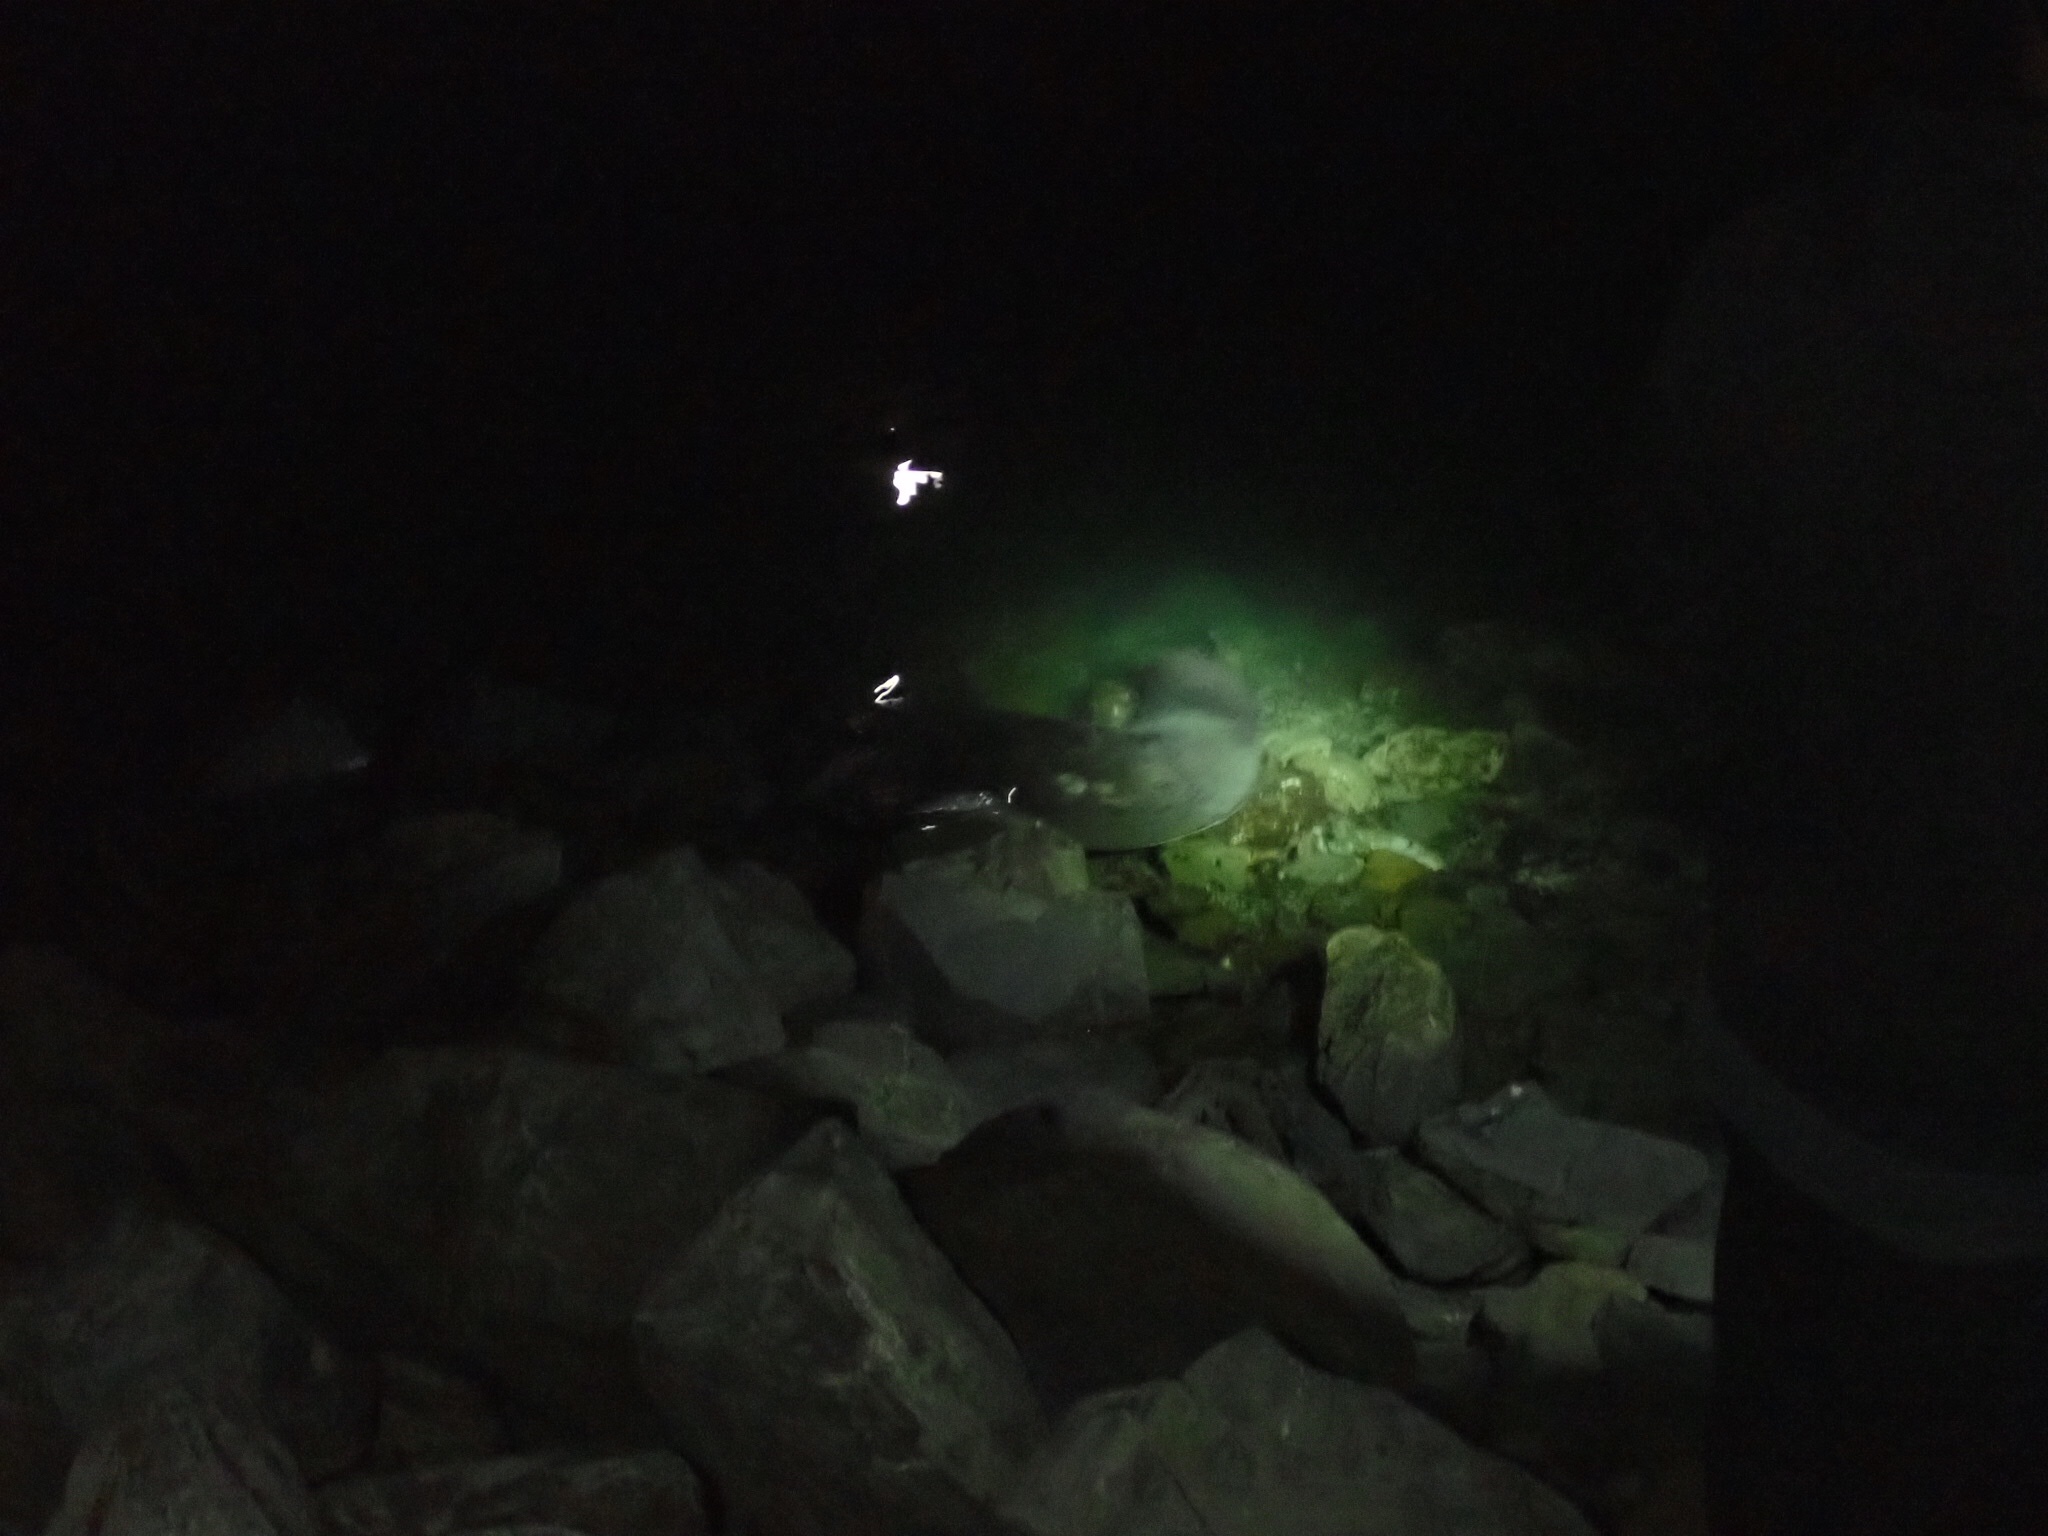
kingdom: Animalia
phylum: Chordata
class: Elasmobranchii
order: Myliobatiformes
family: Dasyatidae
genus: Bathytoshia
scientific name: Bathytoshia brevicaudata
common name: Short-tail stingray
